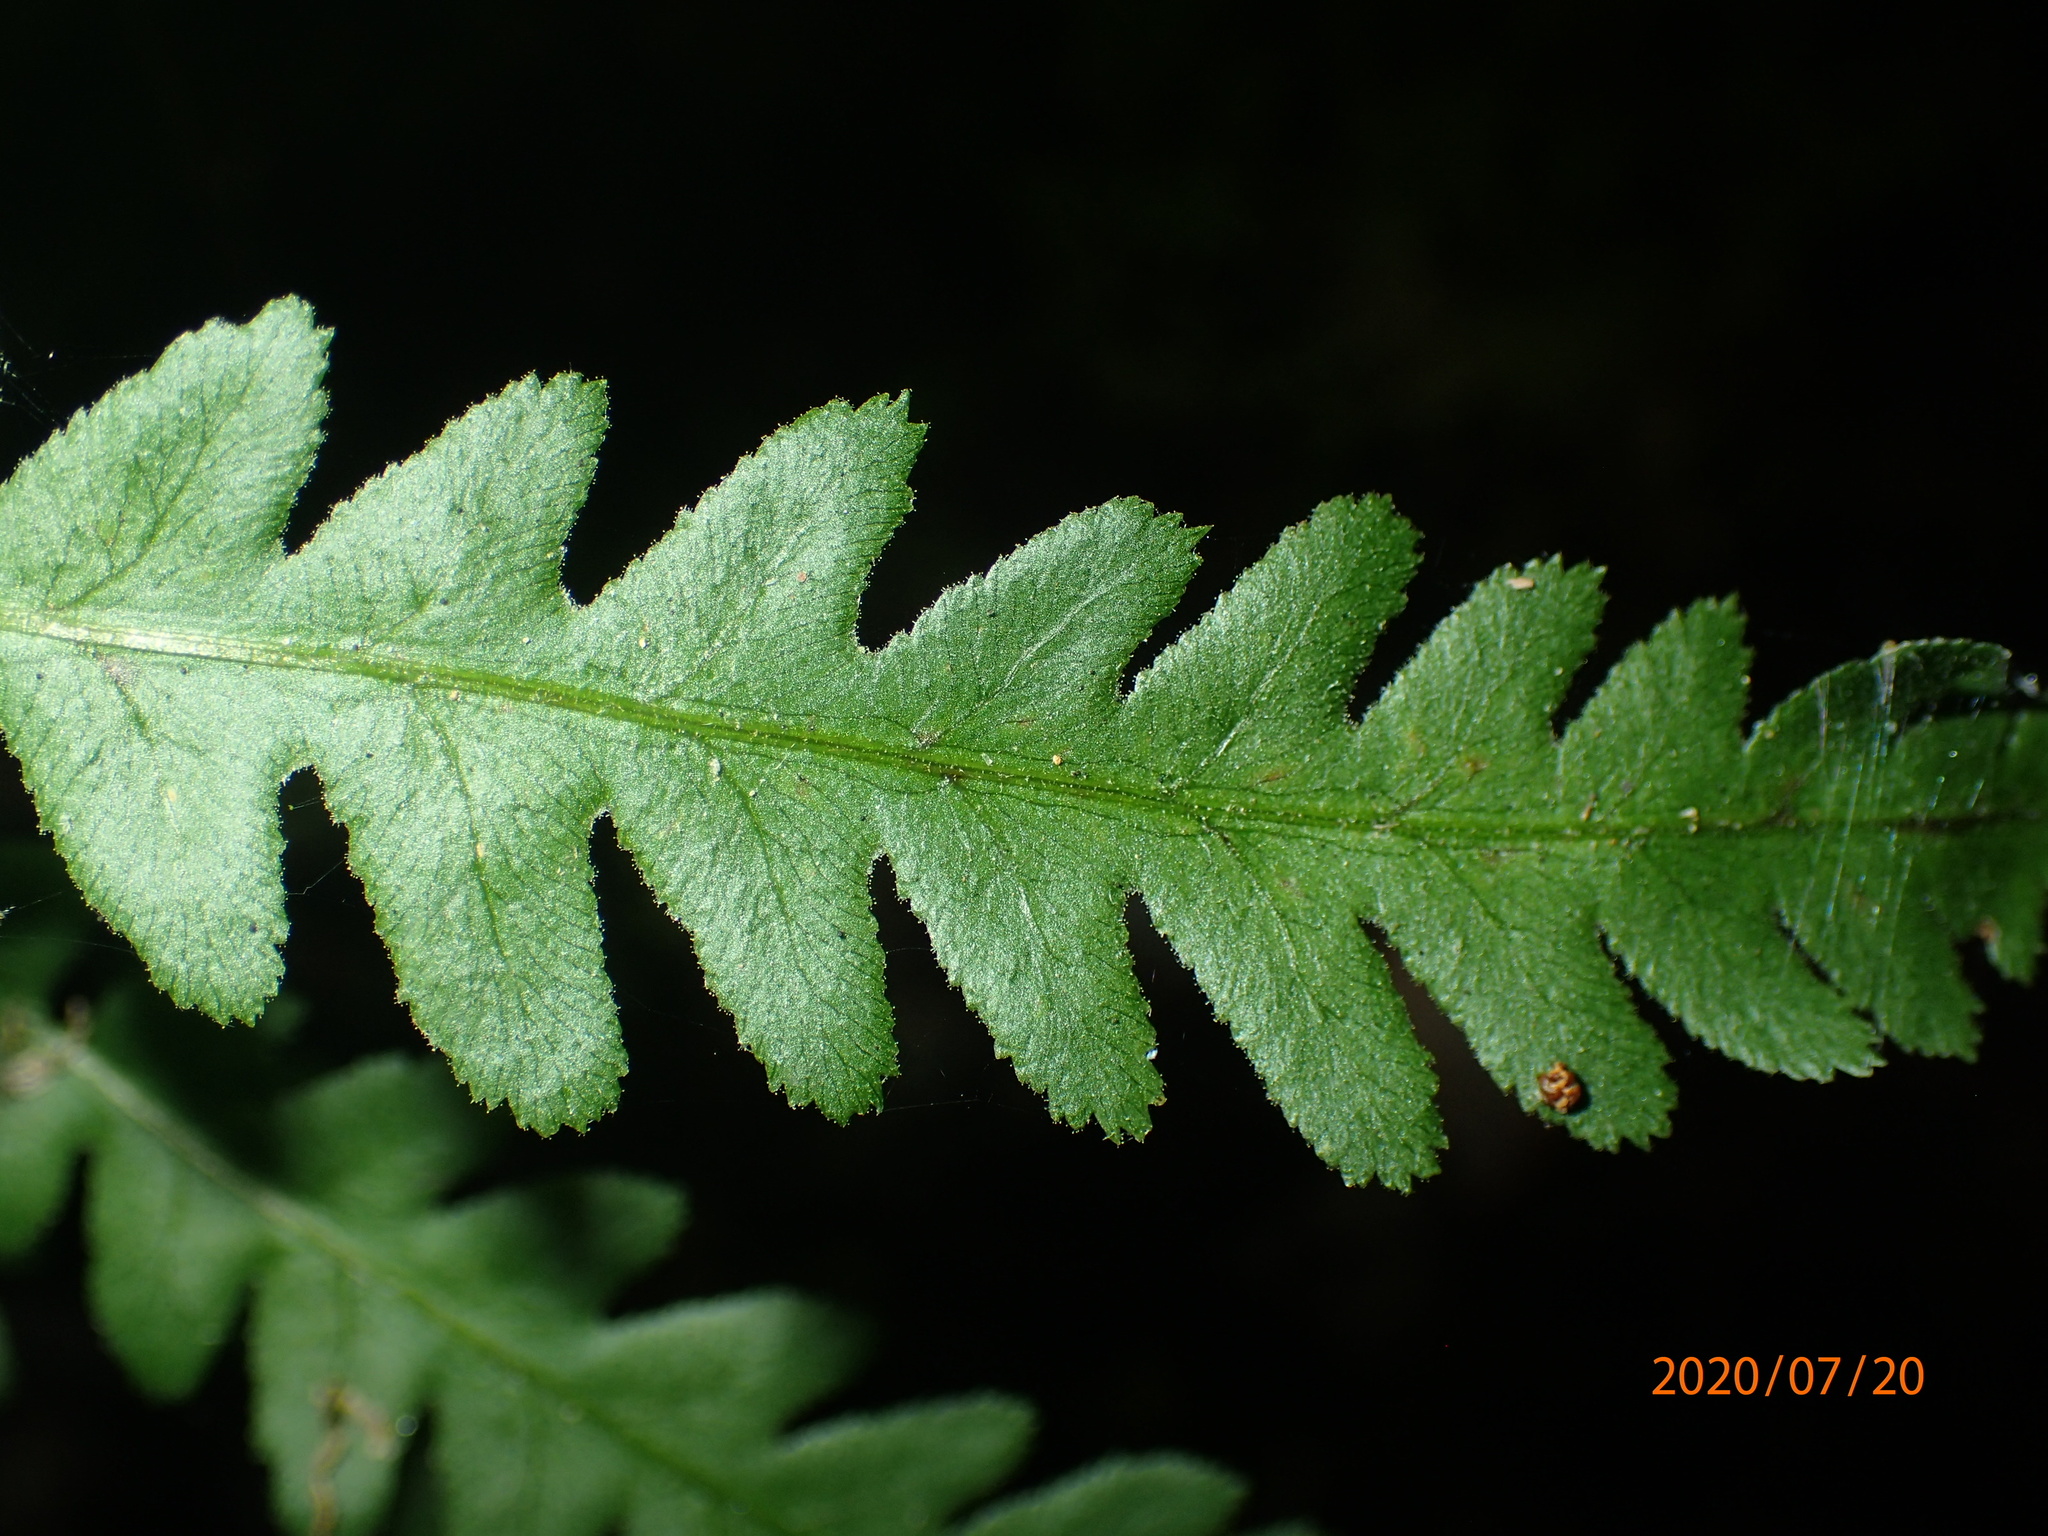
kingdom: Plantae
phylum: Tracheophyta
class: Polypodiopsida
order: Polypodiales
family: Blechnaceae
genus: Anchistea
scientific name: Anchistea virginica
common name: Virginia chain fern
